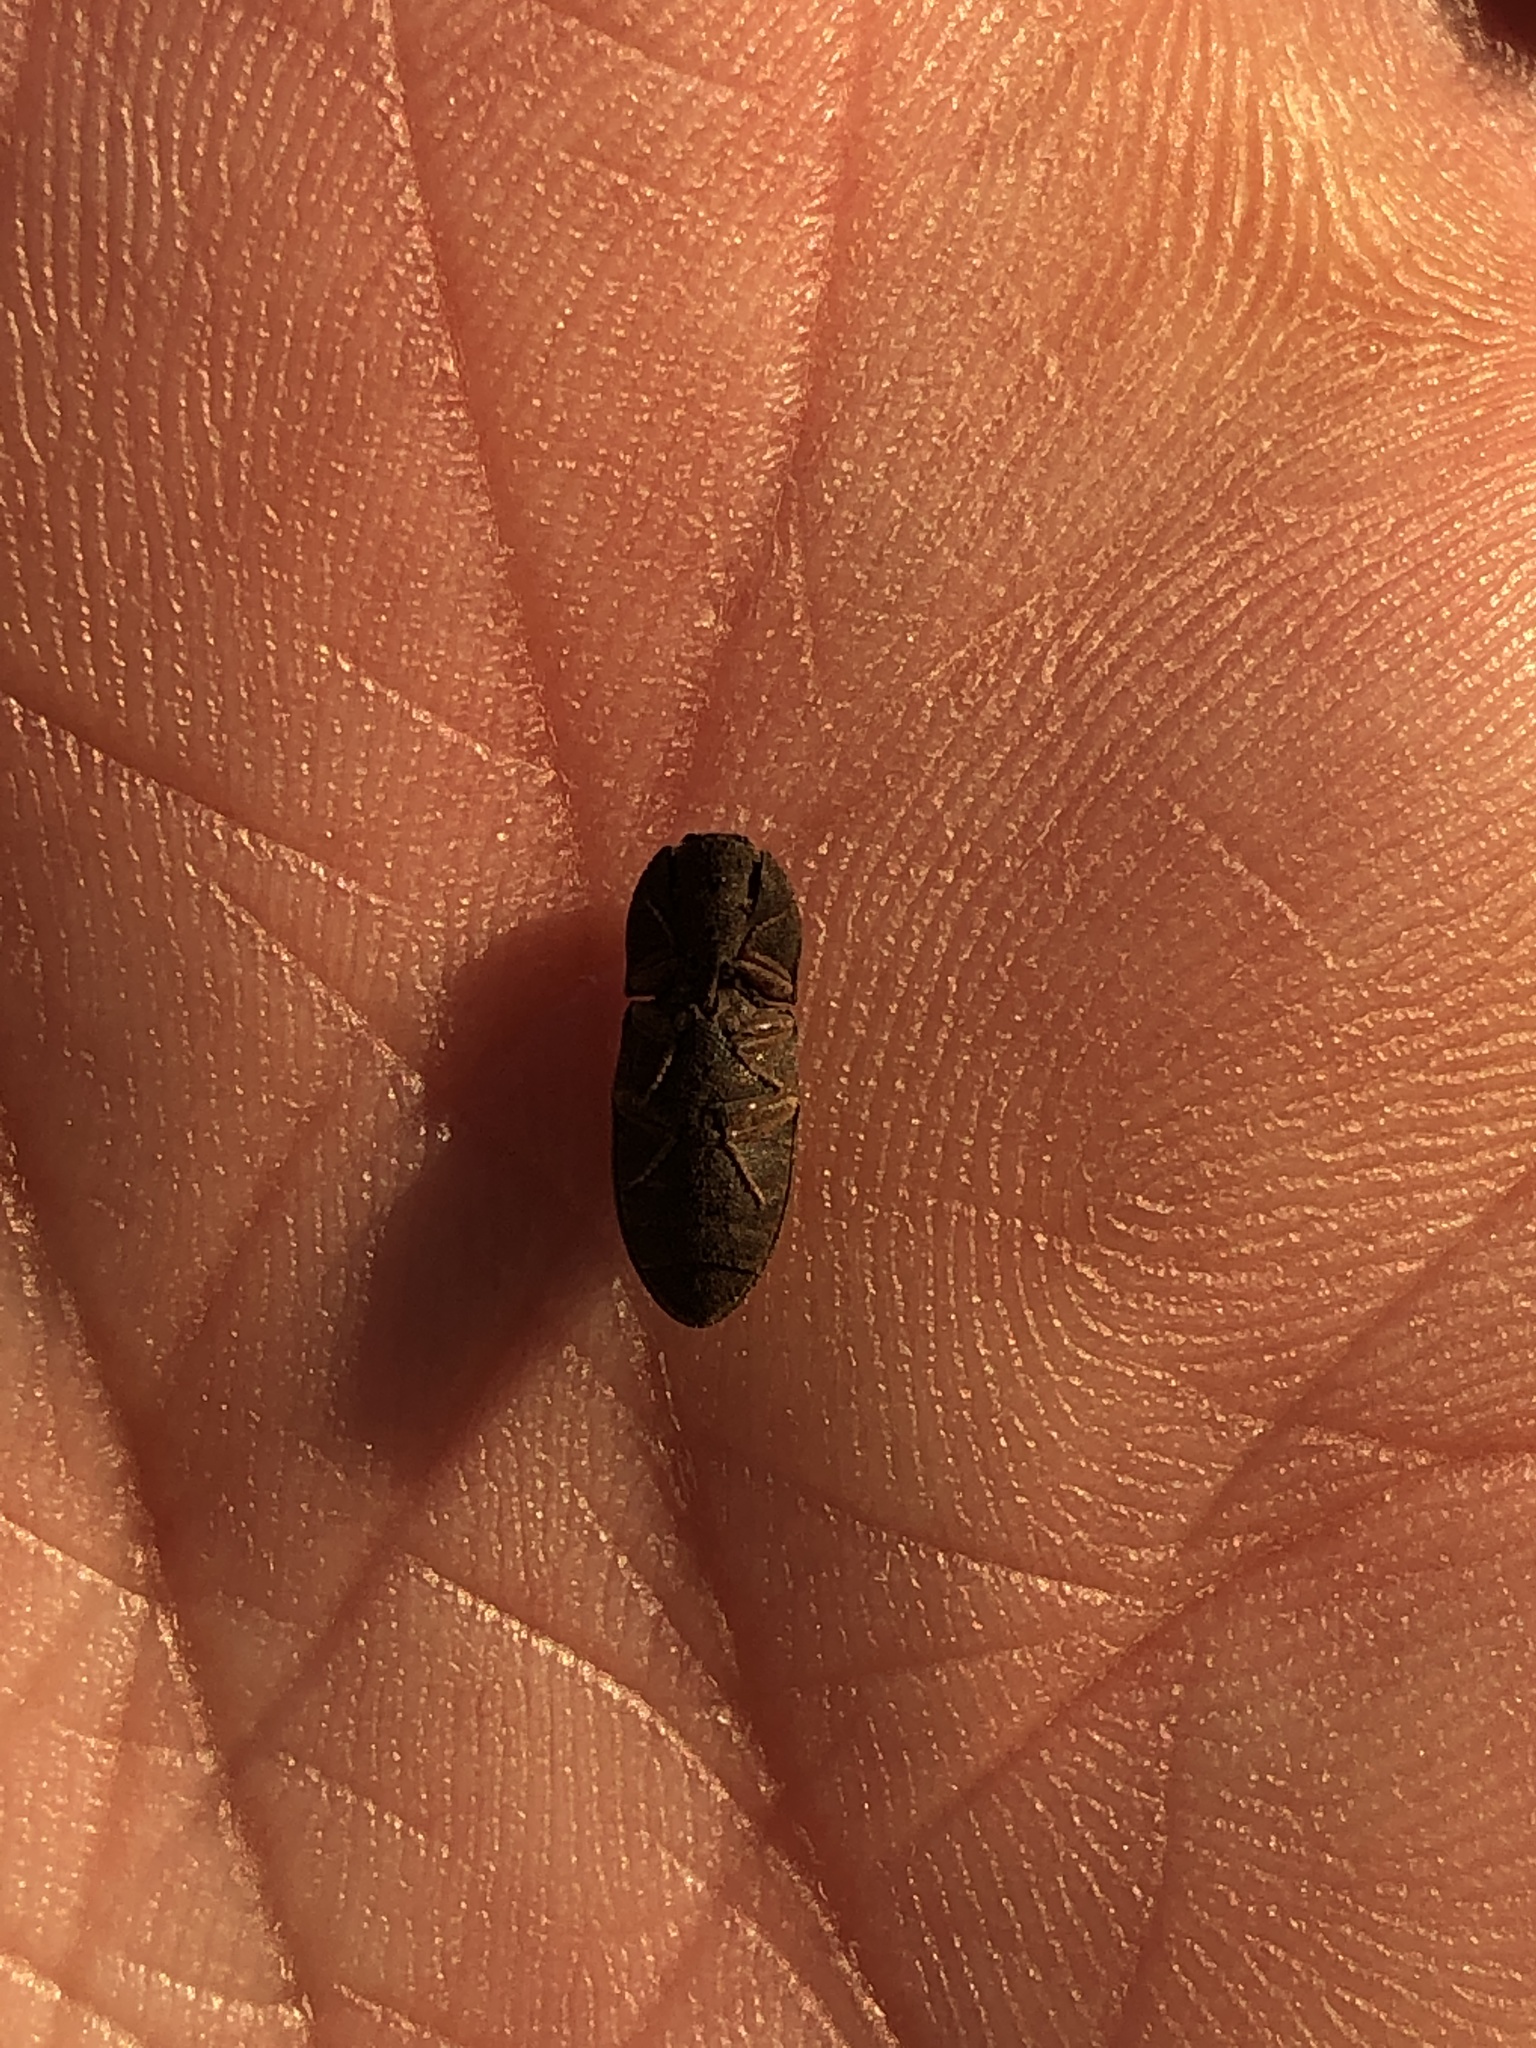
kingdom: Animalia
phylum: Arthropoda
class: Insecta
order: Coleoptera
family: Elateridae
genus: Agrypnus
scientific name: Agrypnus rectangularis
